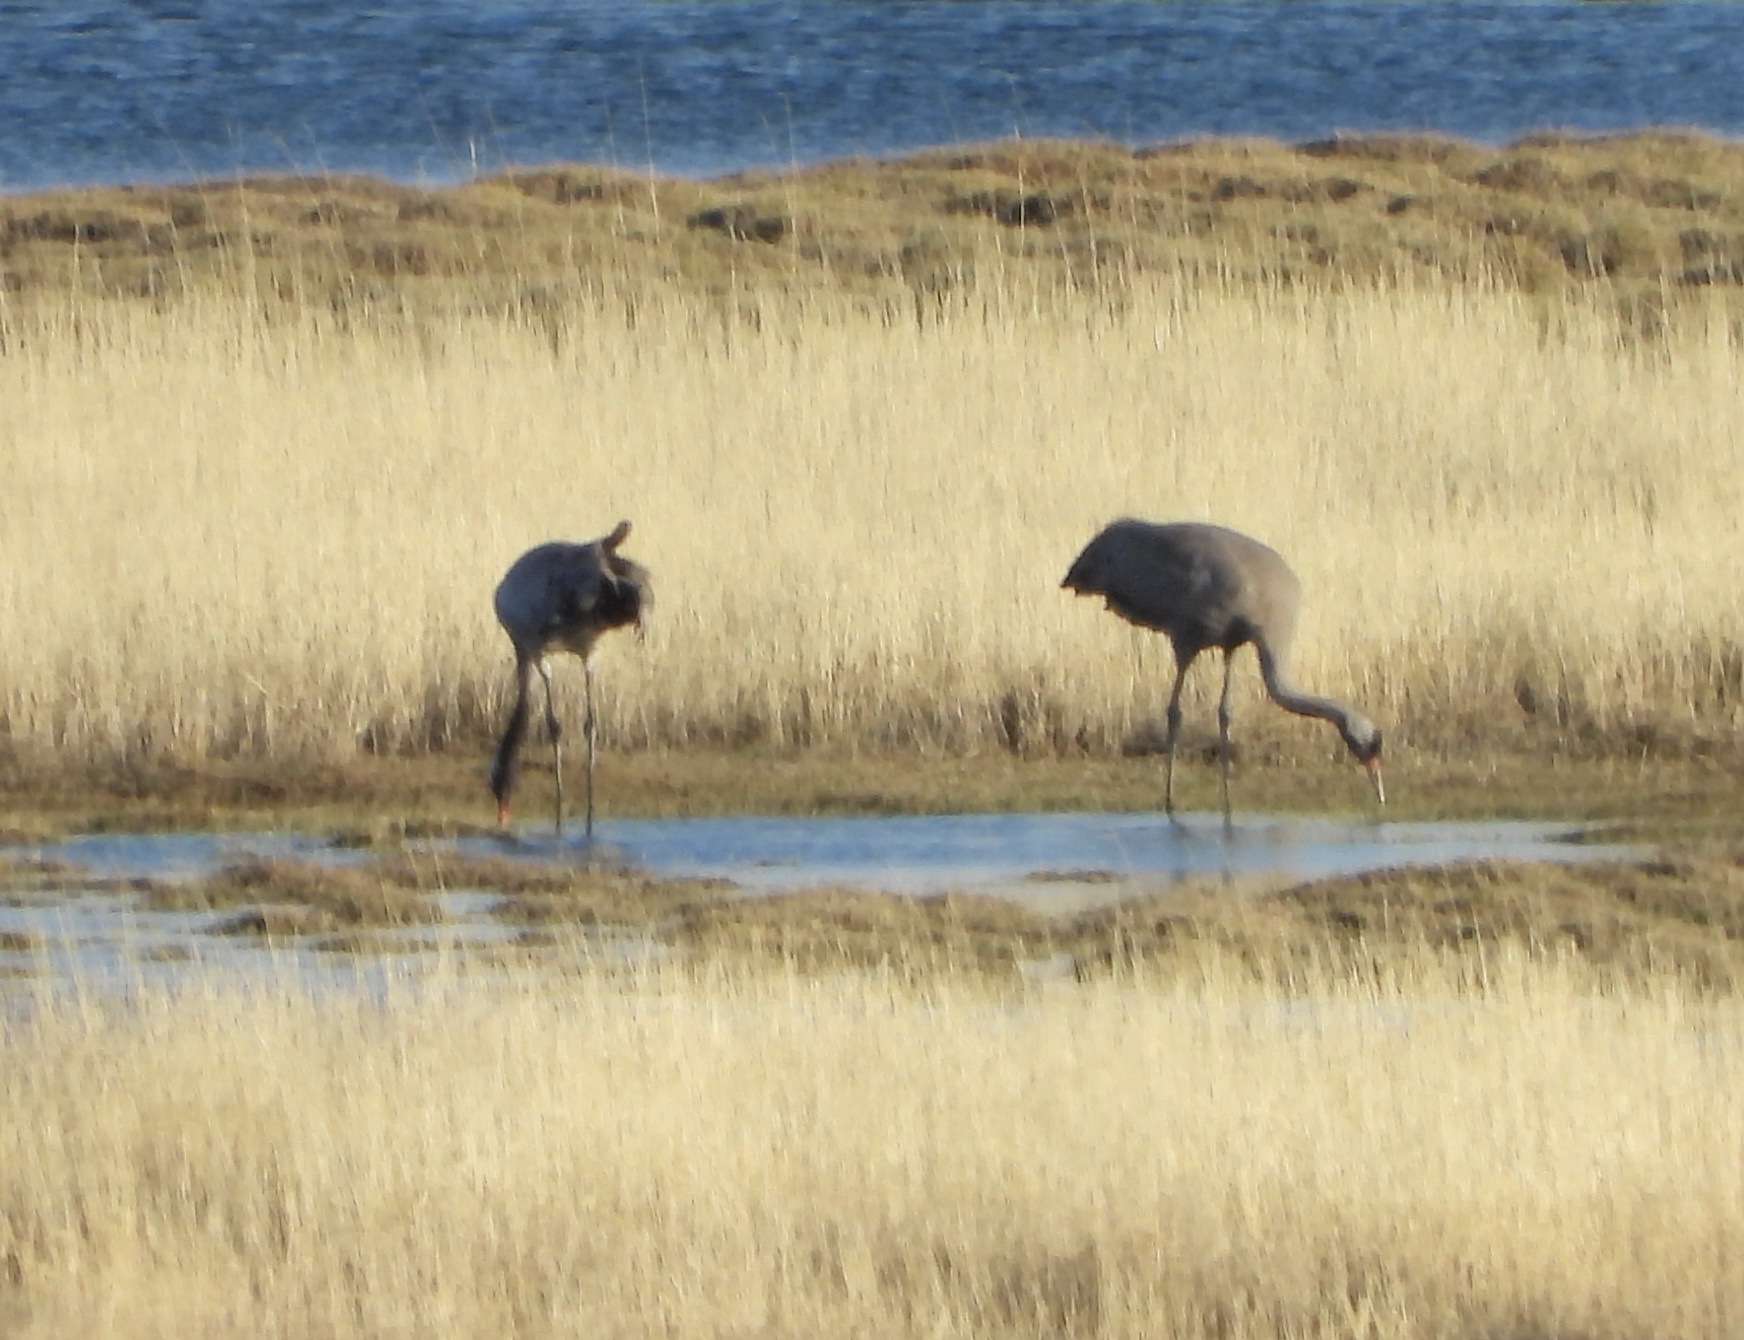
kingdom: Animalia
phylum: Chordata
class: Aves
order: Gruiformes
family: Gruidae
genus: Grus
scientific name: Grus grus
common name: Common crane
